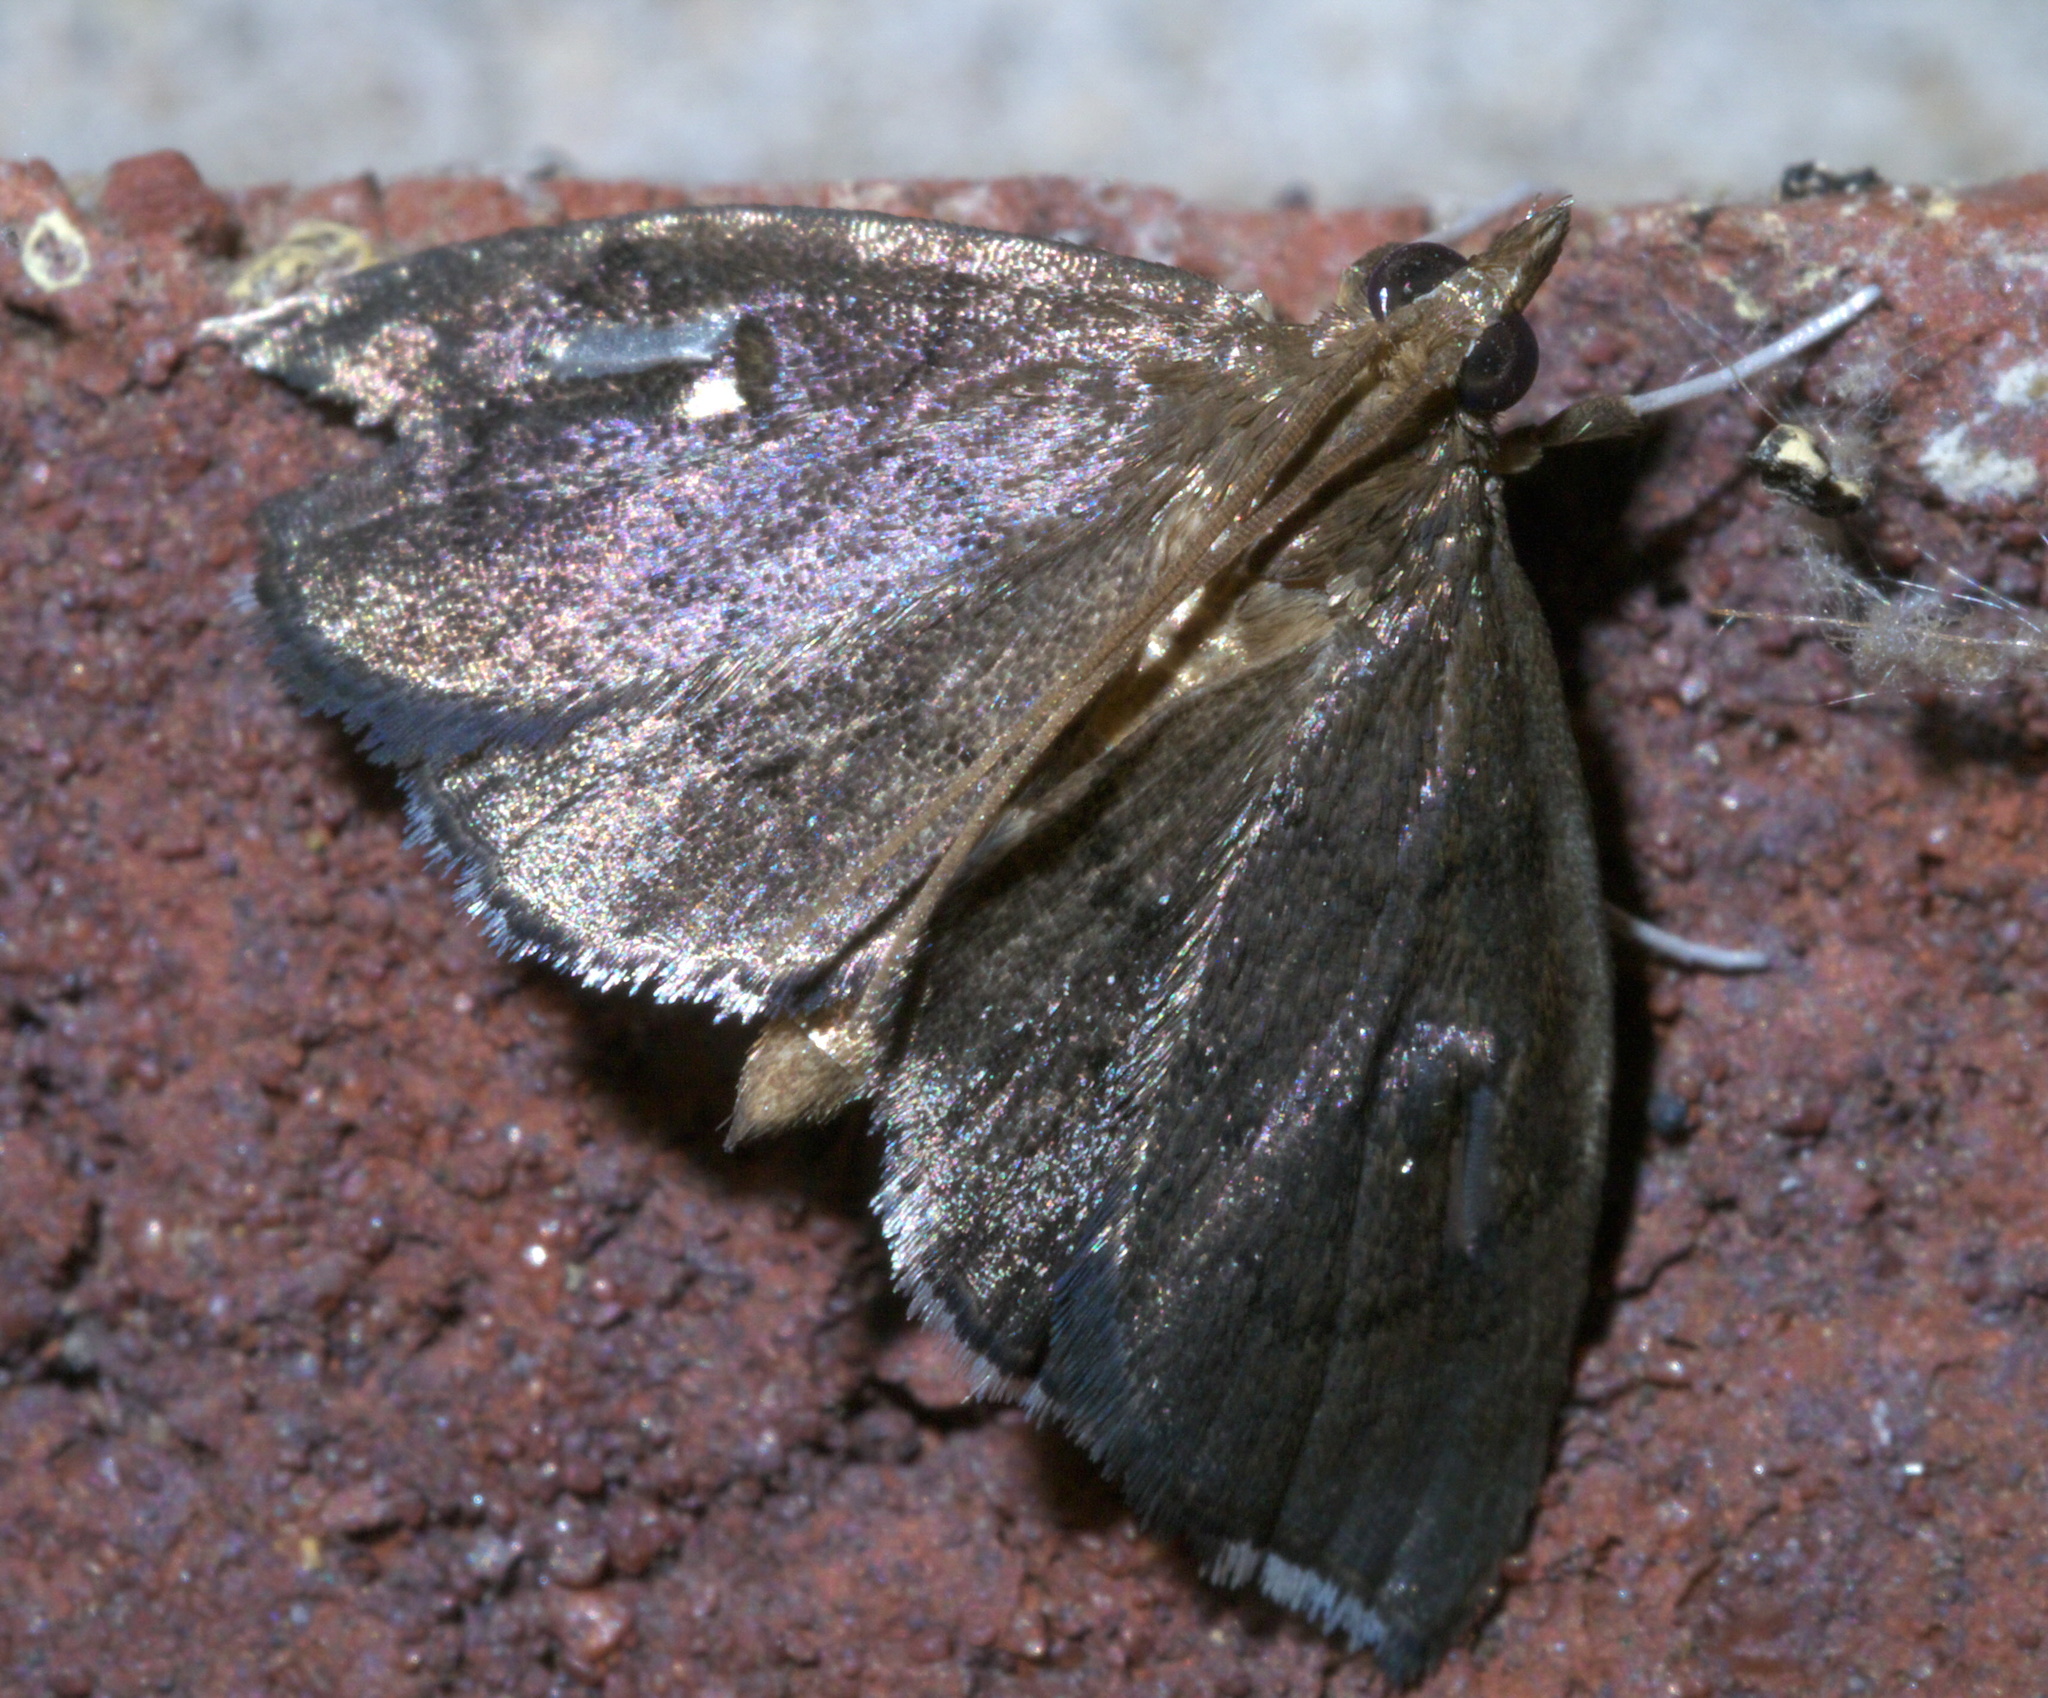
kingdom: Animalia
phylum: Arthropoda
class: Insecta
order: Lepidoptera
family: Crambidae
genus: Perispasta
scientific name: Perispasta caeculalis
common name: Titian peale's moth
